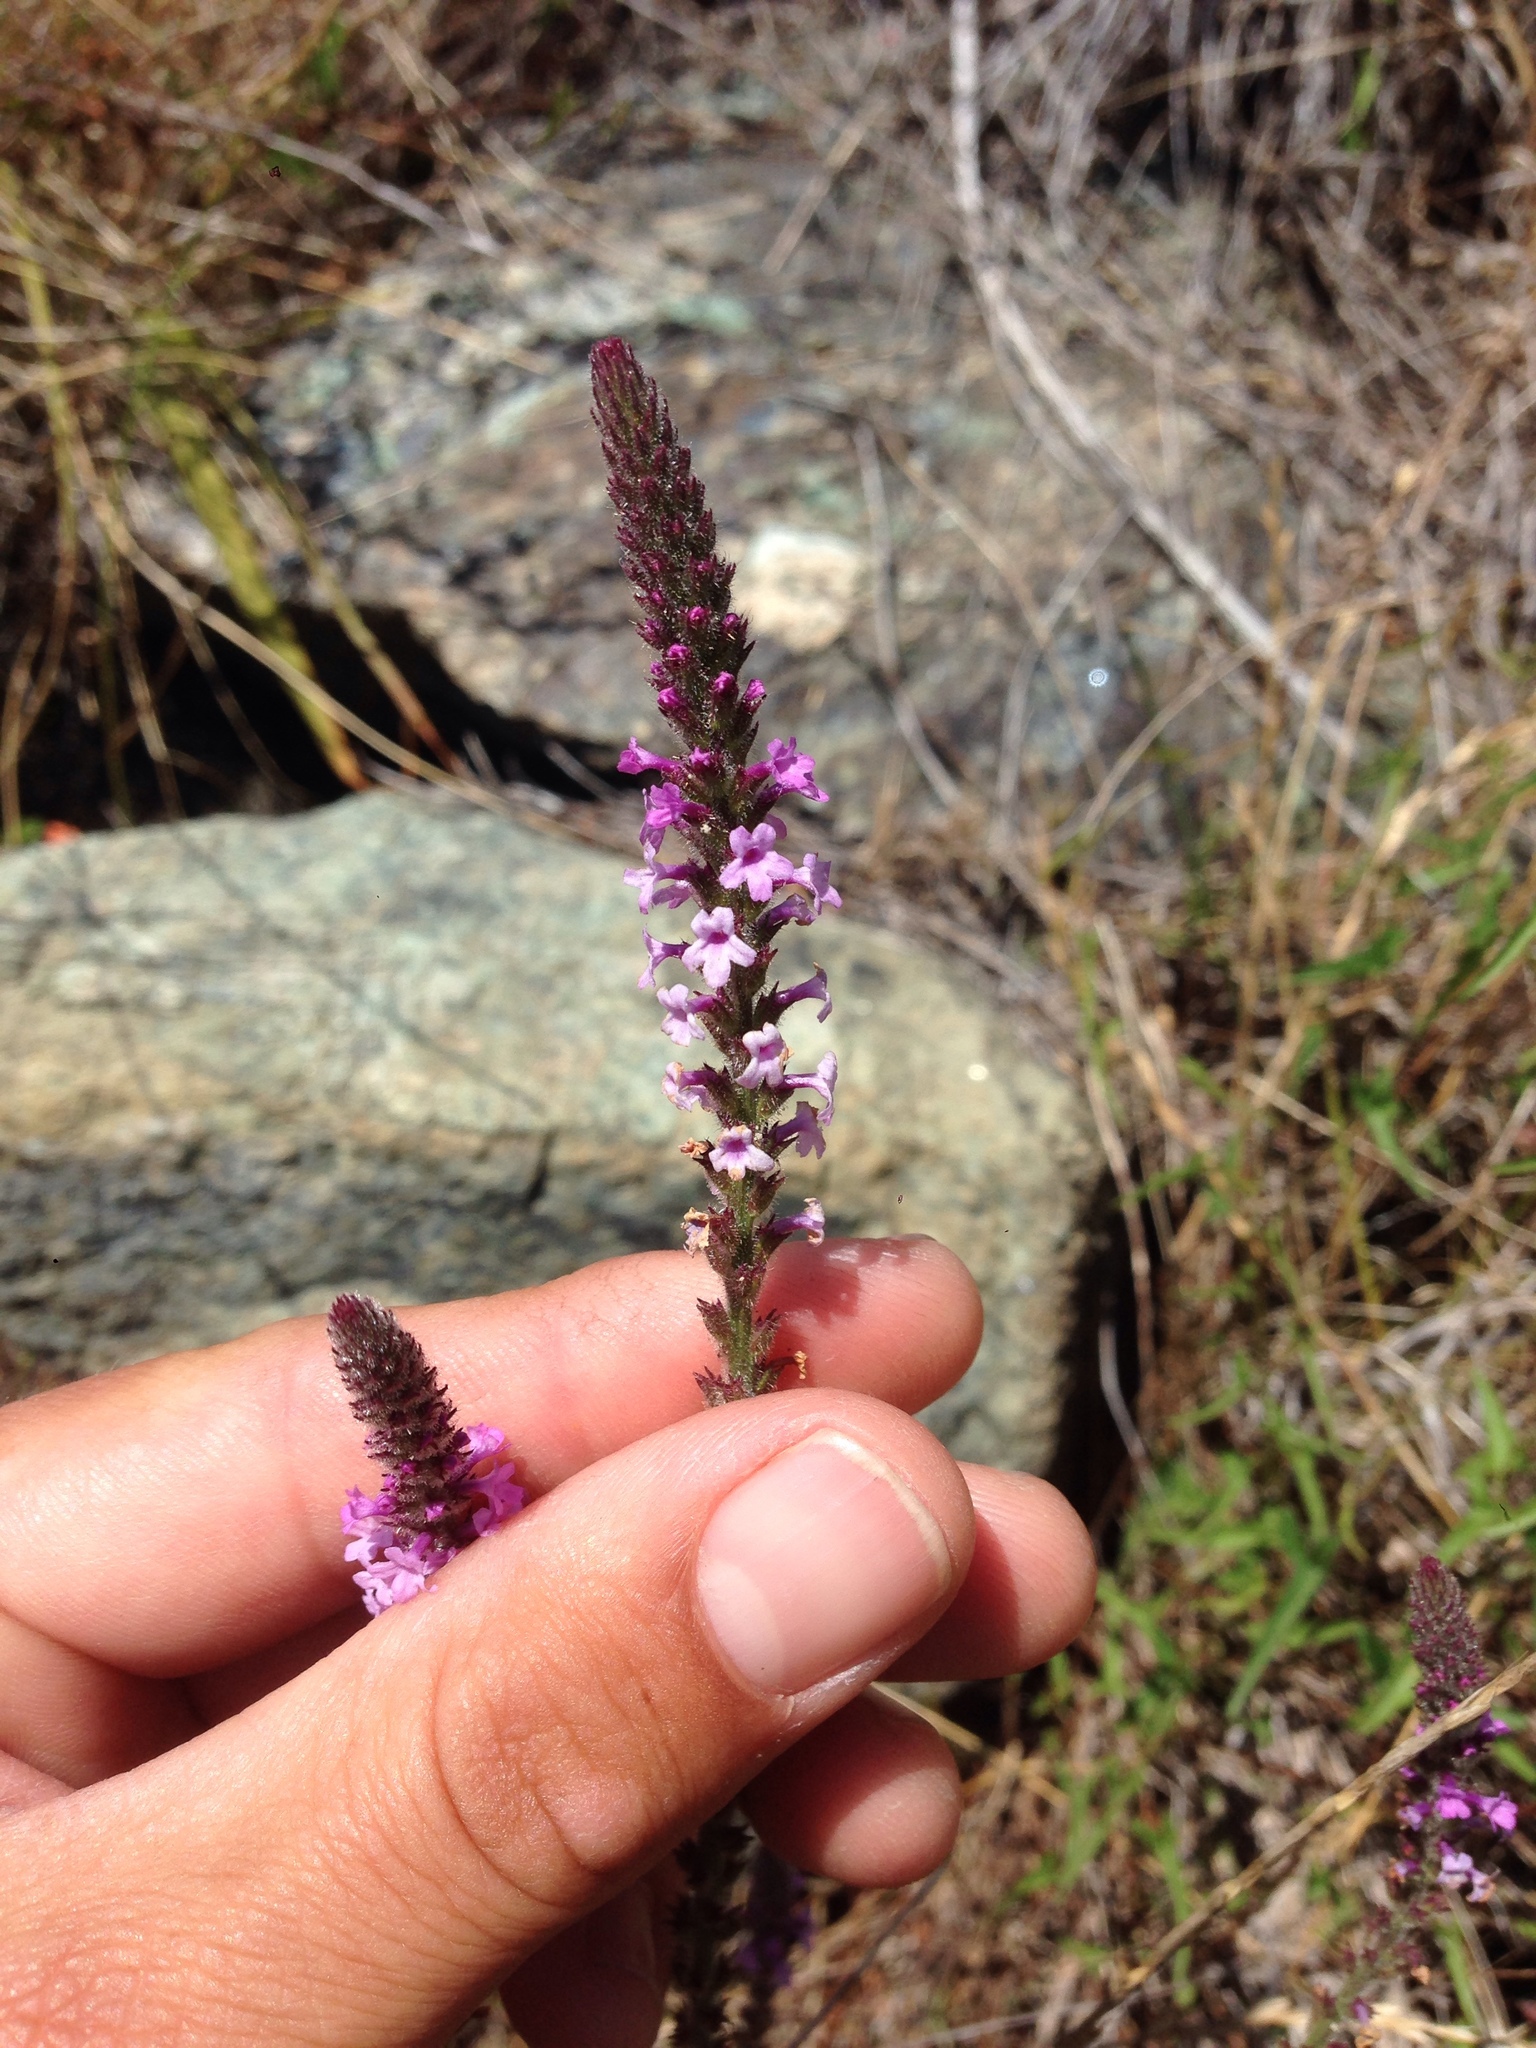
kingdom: Plantae
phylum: Tracheophyta
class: Magnoliopsida
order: Lamiales
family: Verbenaceae
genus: Verbena
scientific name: Verbena lasiostachys
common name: Vervain
